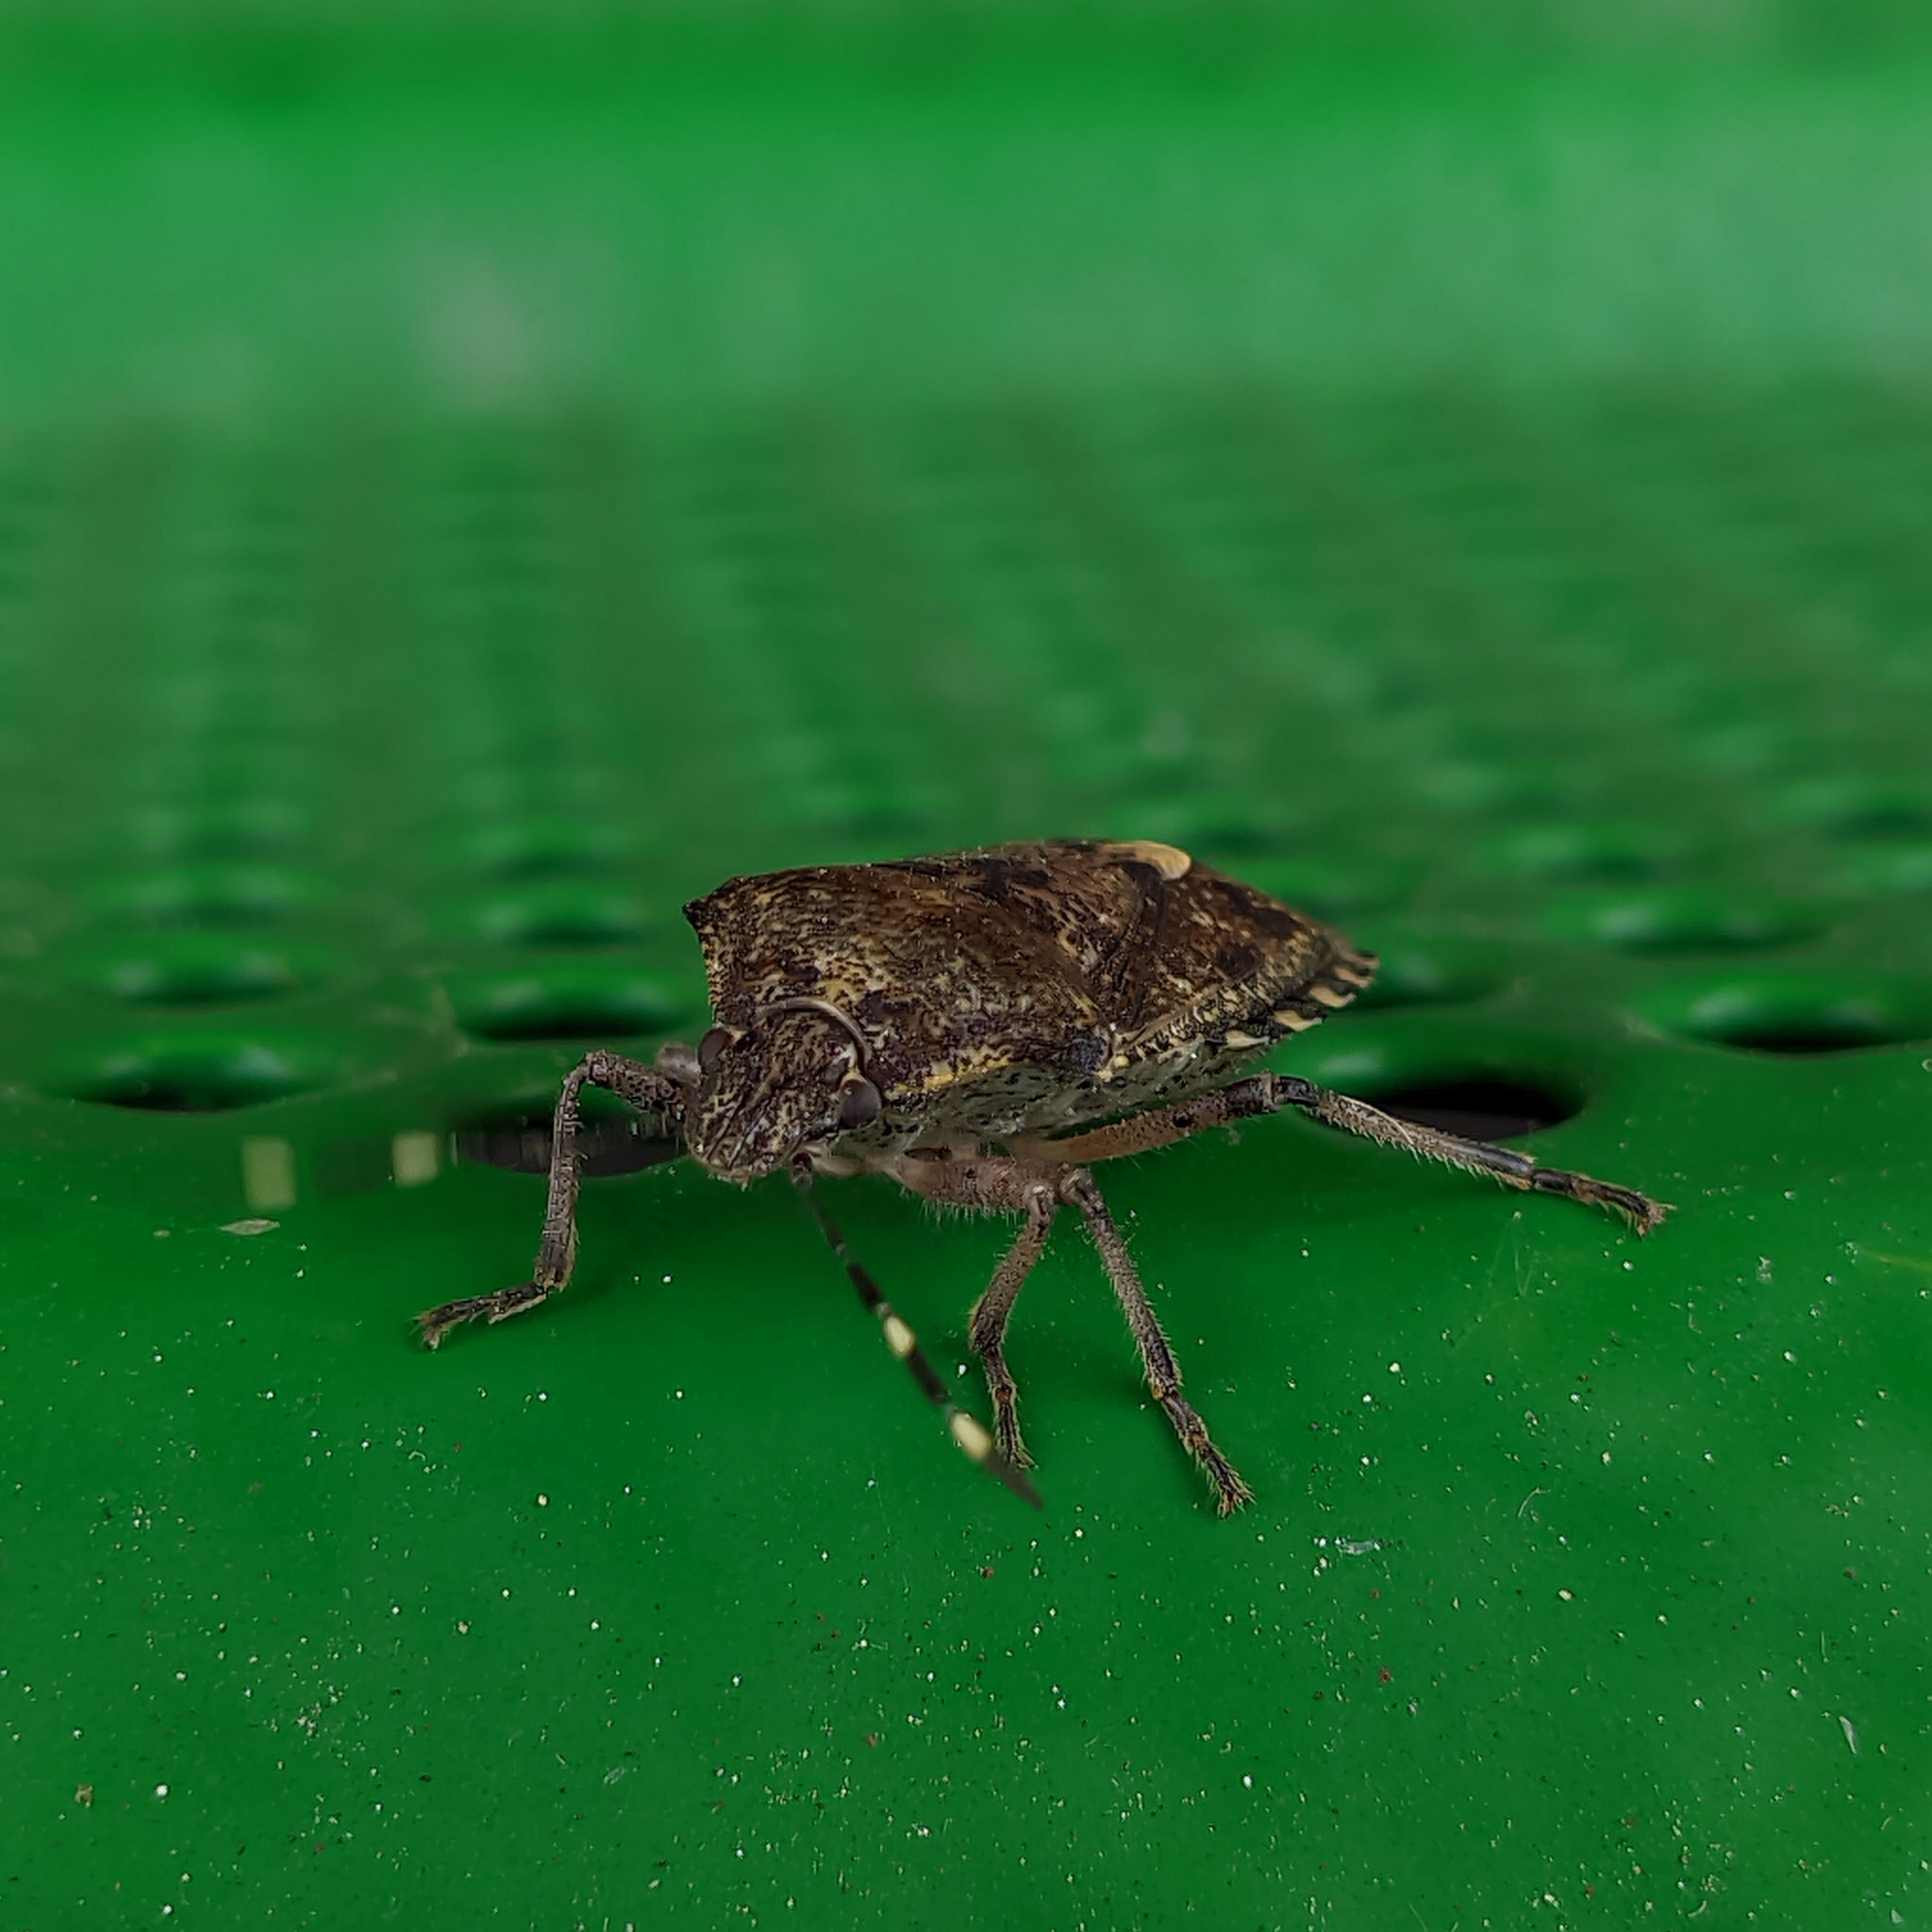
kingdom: Animalia
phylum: Arthropoda
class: Insecta
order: Hemiptera
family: Pentatomidae
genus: Rhaphigaster
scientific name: Rhaphigaster nebulosa
